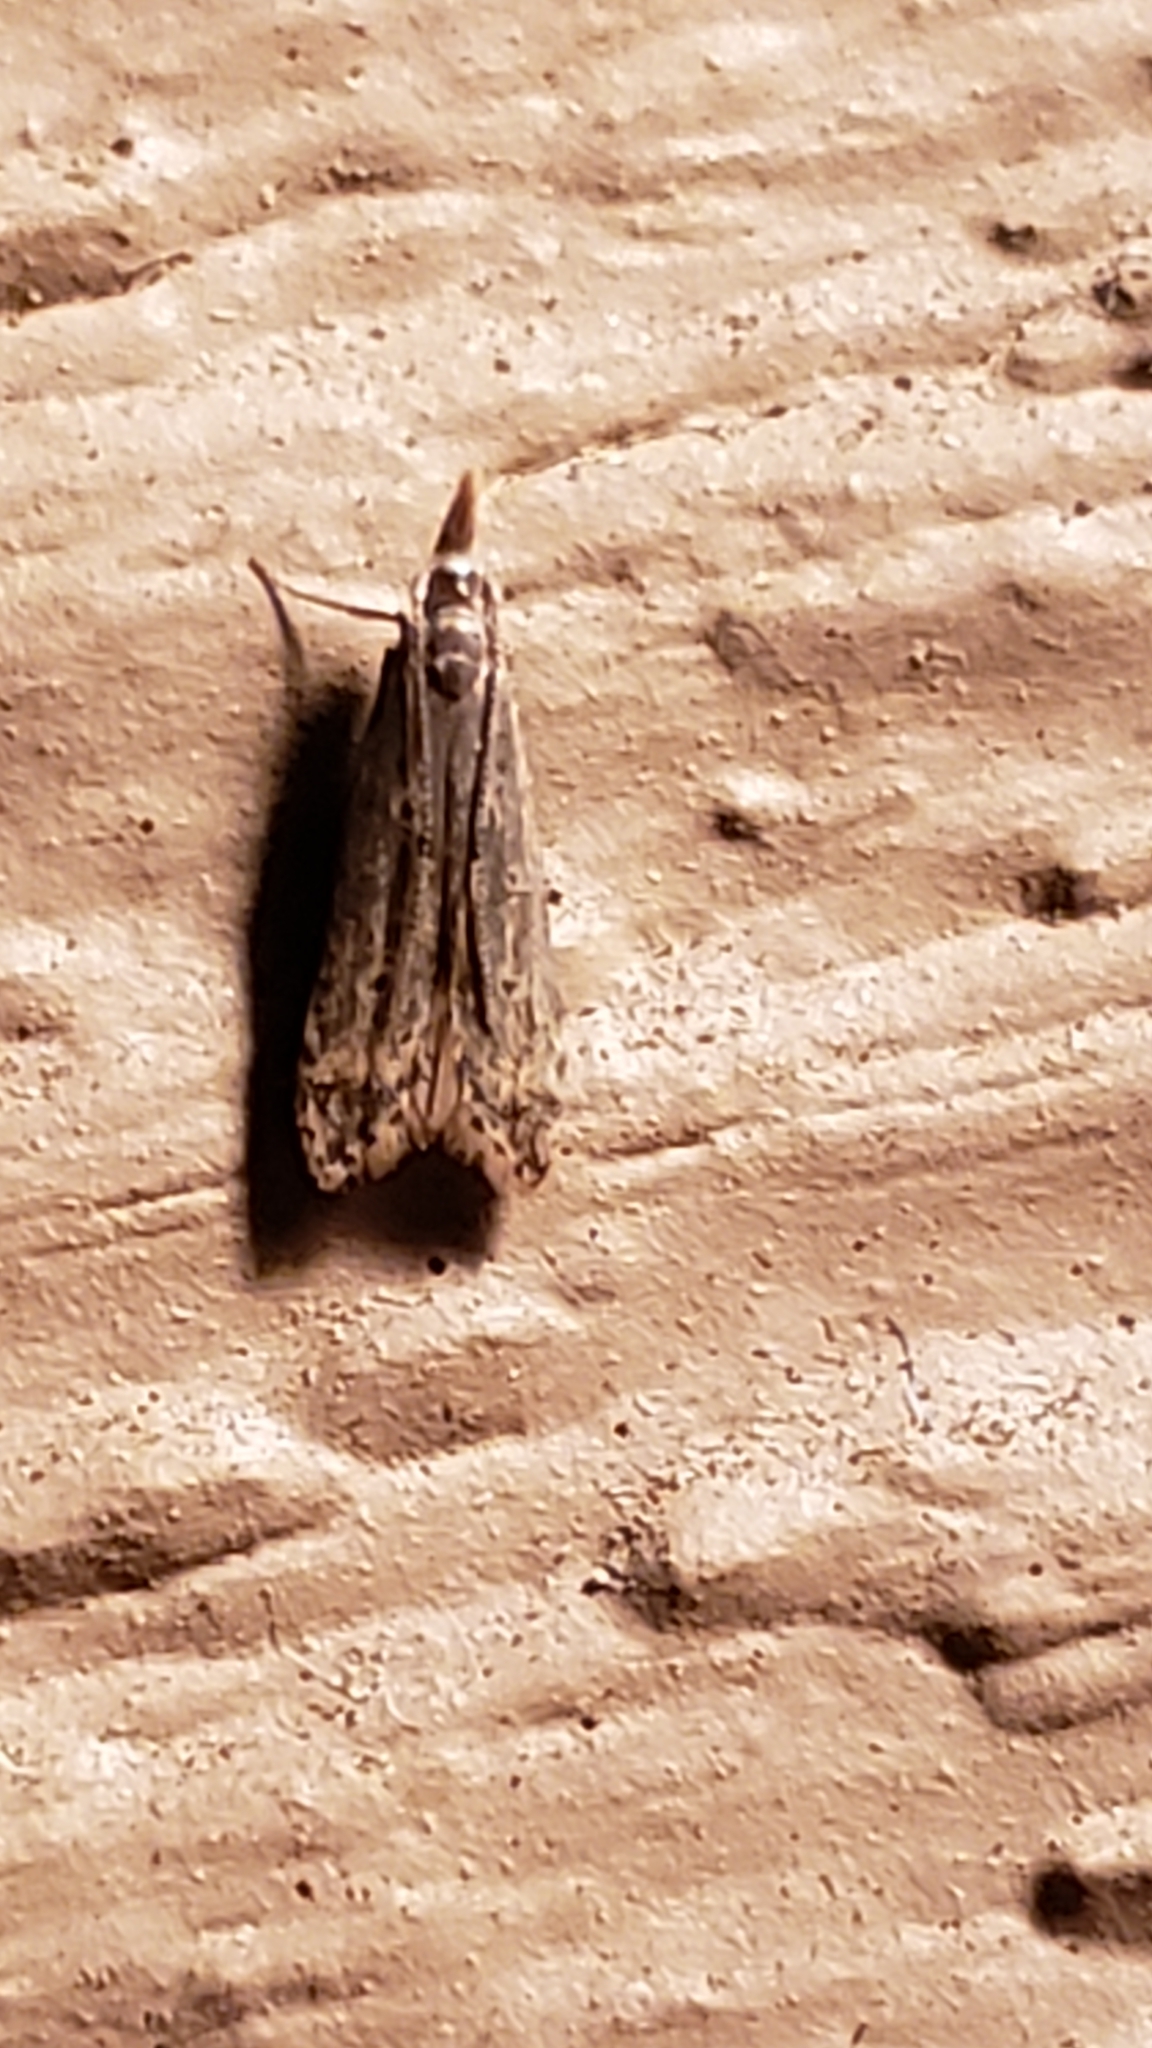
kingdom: Animalia
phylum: Arthropoda
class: Insecta
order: Lepidoptera
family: Gelechiidae
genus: Dichomeris
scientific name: Dichomeris punctipennella
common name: Many-spotted dichomeris moth
